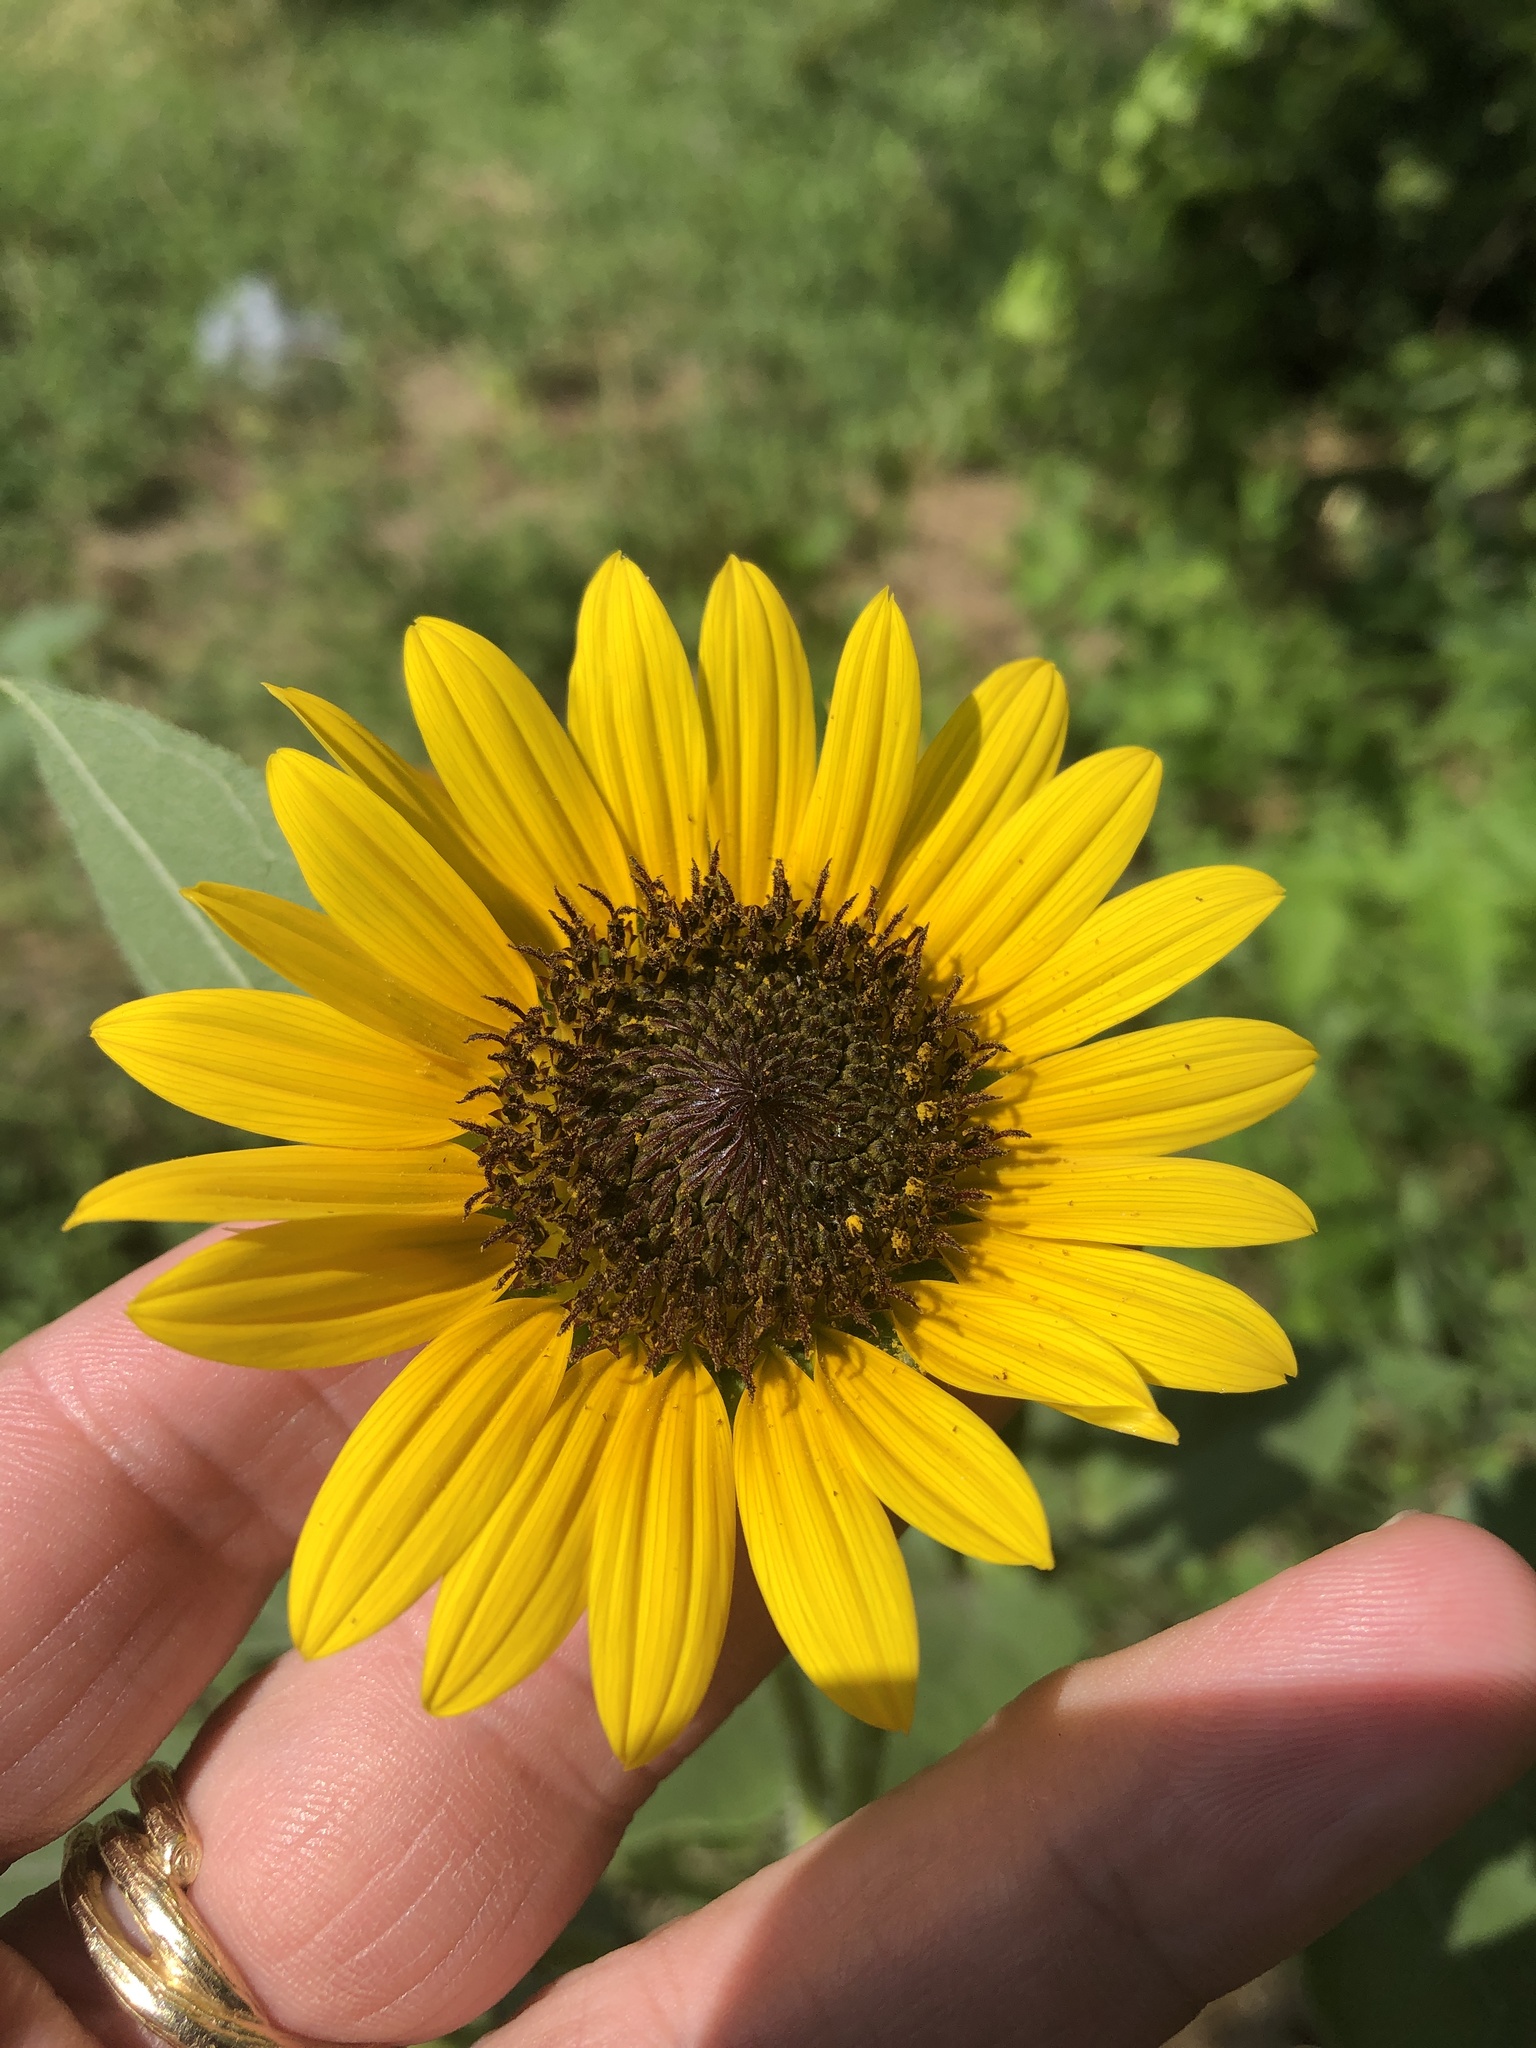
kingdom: Plantae
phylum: Tracheophyta
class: Magnoliopsida
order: Asterales
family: Asteraceae
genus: Helianthus
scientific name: Helianthus annuus
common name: Sunflower
